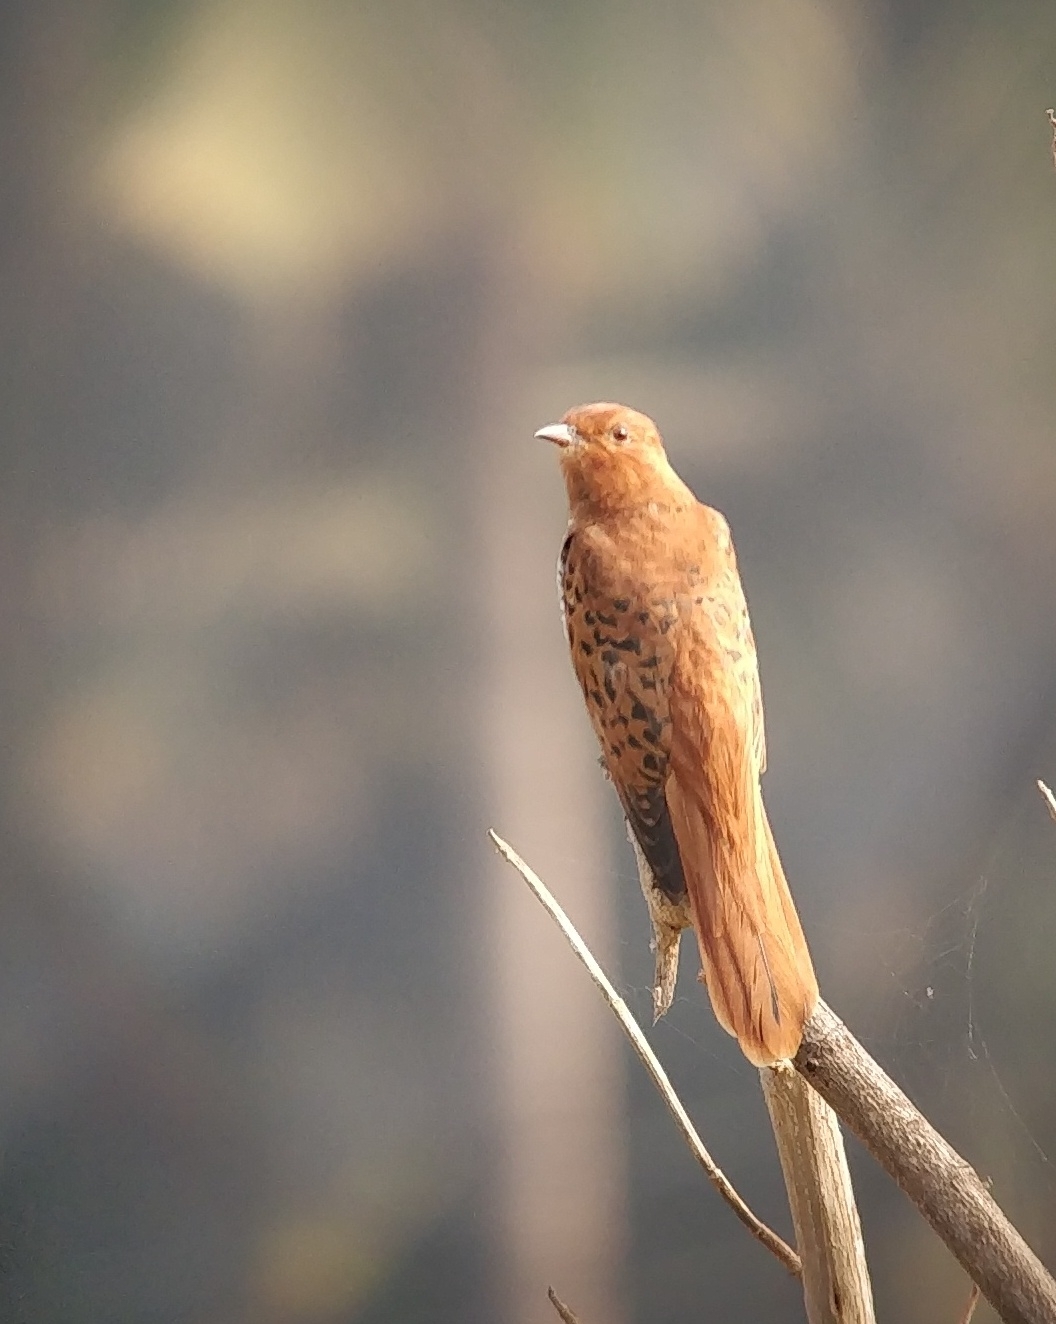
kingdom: Animalia
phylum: Chordata
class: Aves
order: Cuculiformes
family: Cuculidae
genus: Cacomantis
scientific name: Cacomantis passerinus
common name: Grey-bellied cuckoo
